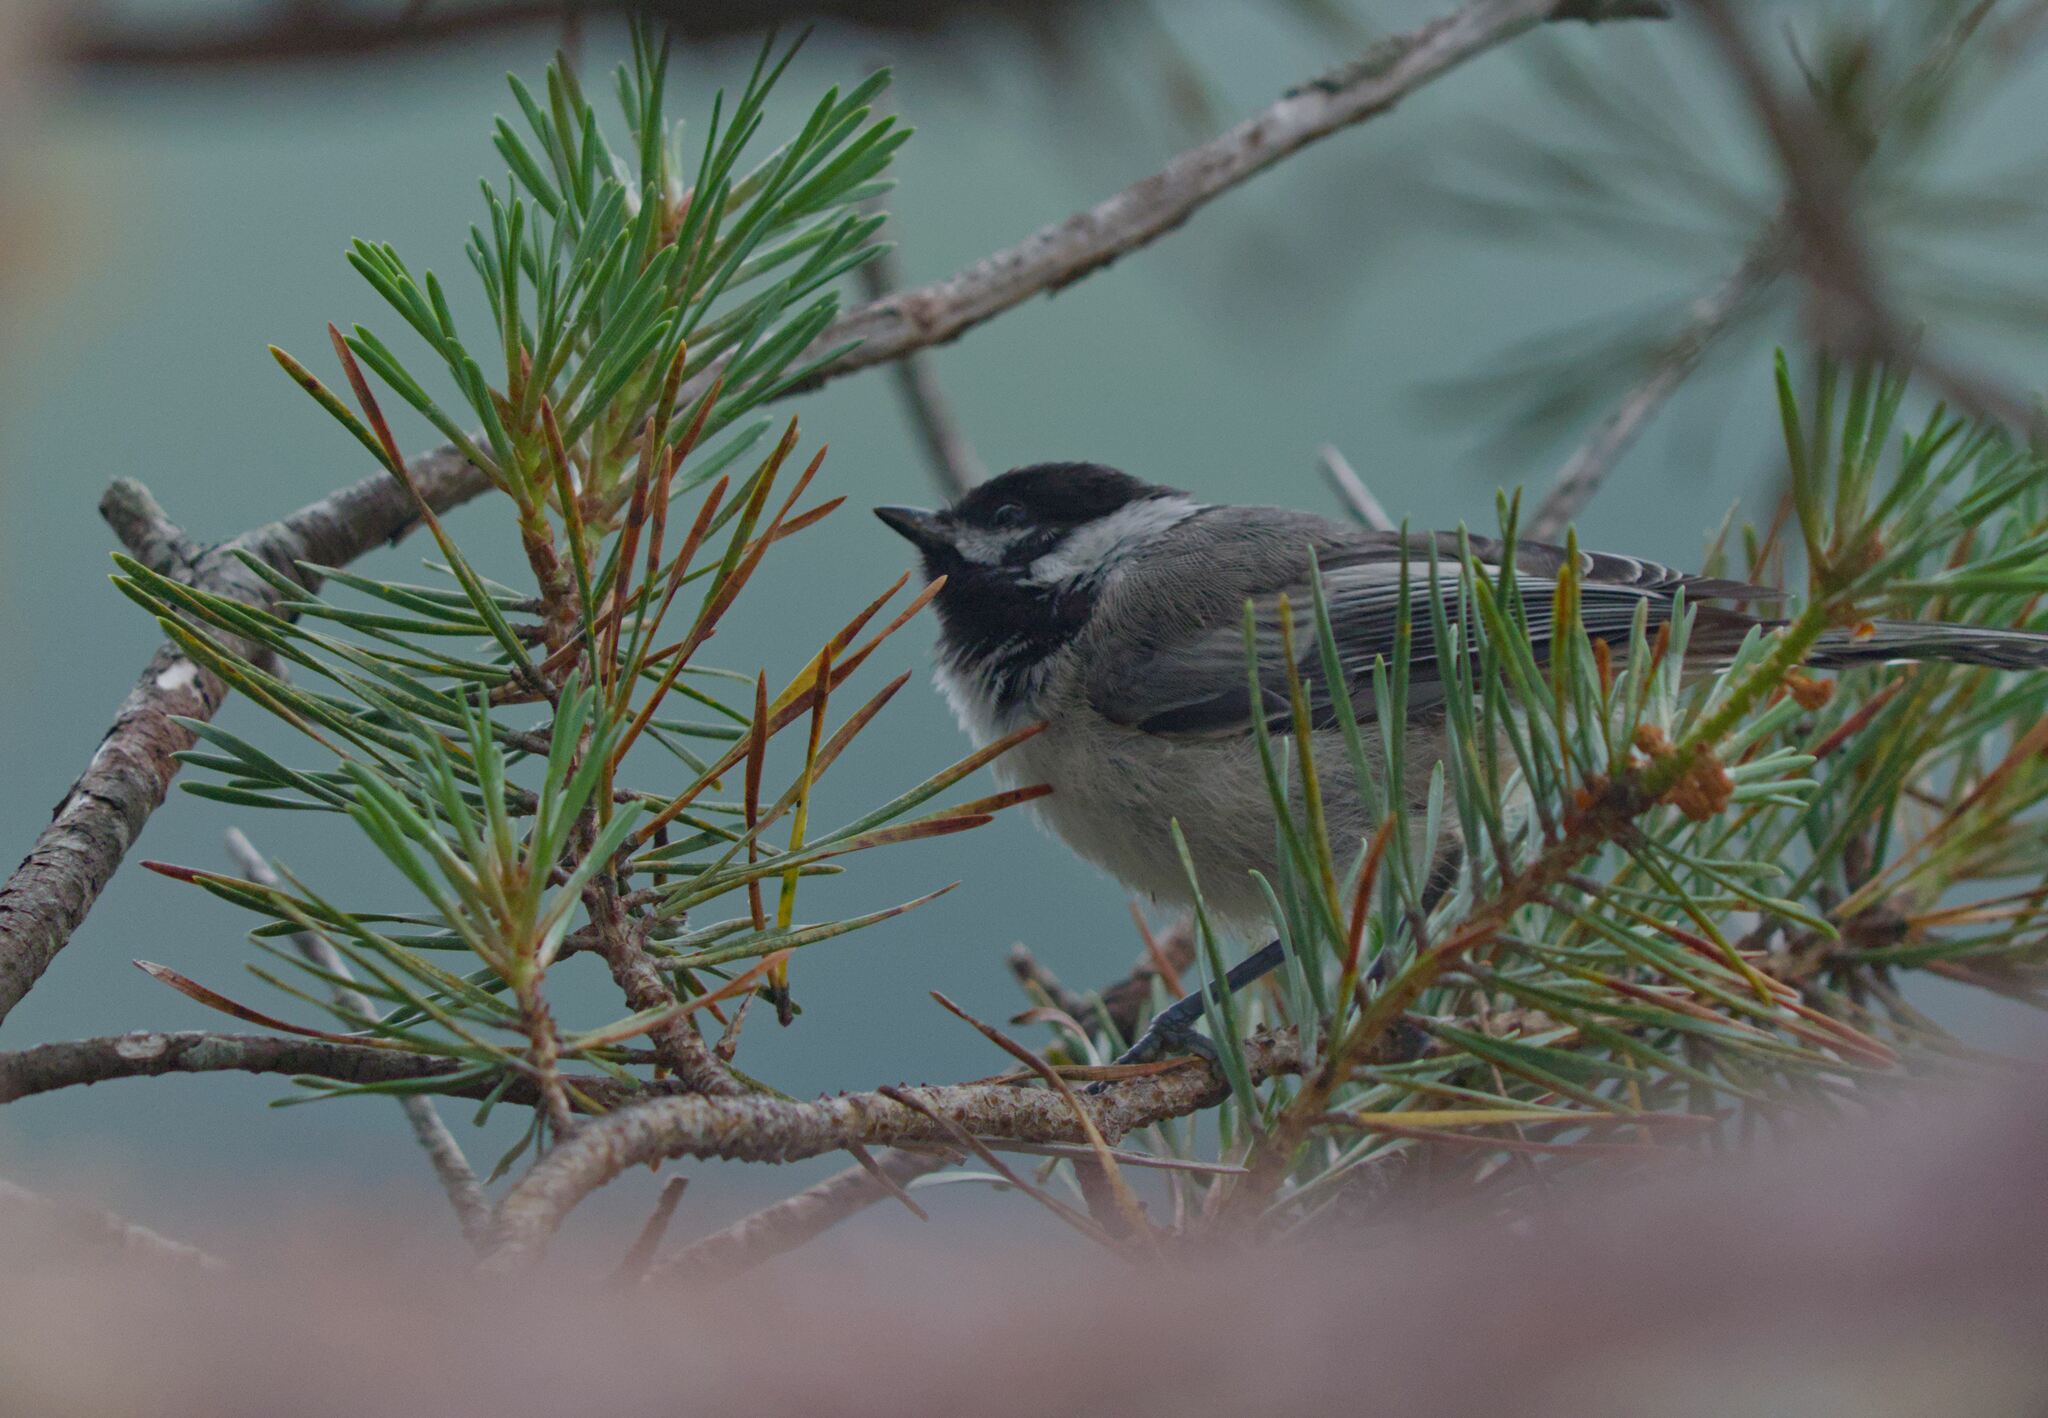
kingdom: Animalia
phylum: Chordata
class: Aves
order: Passeriformes
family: Paridae
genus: Poecile
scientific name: Poecile atricapillus
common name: Black-capped chickadee
